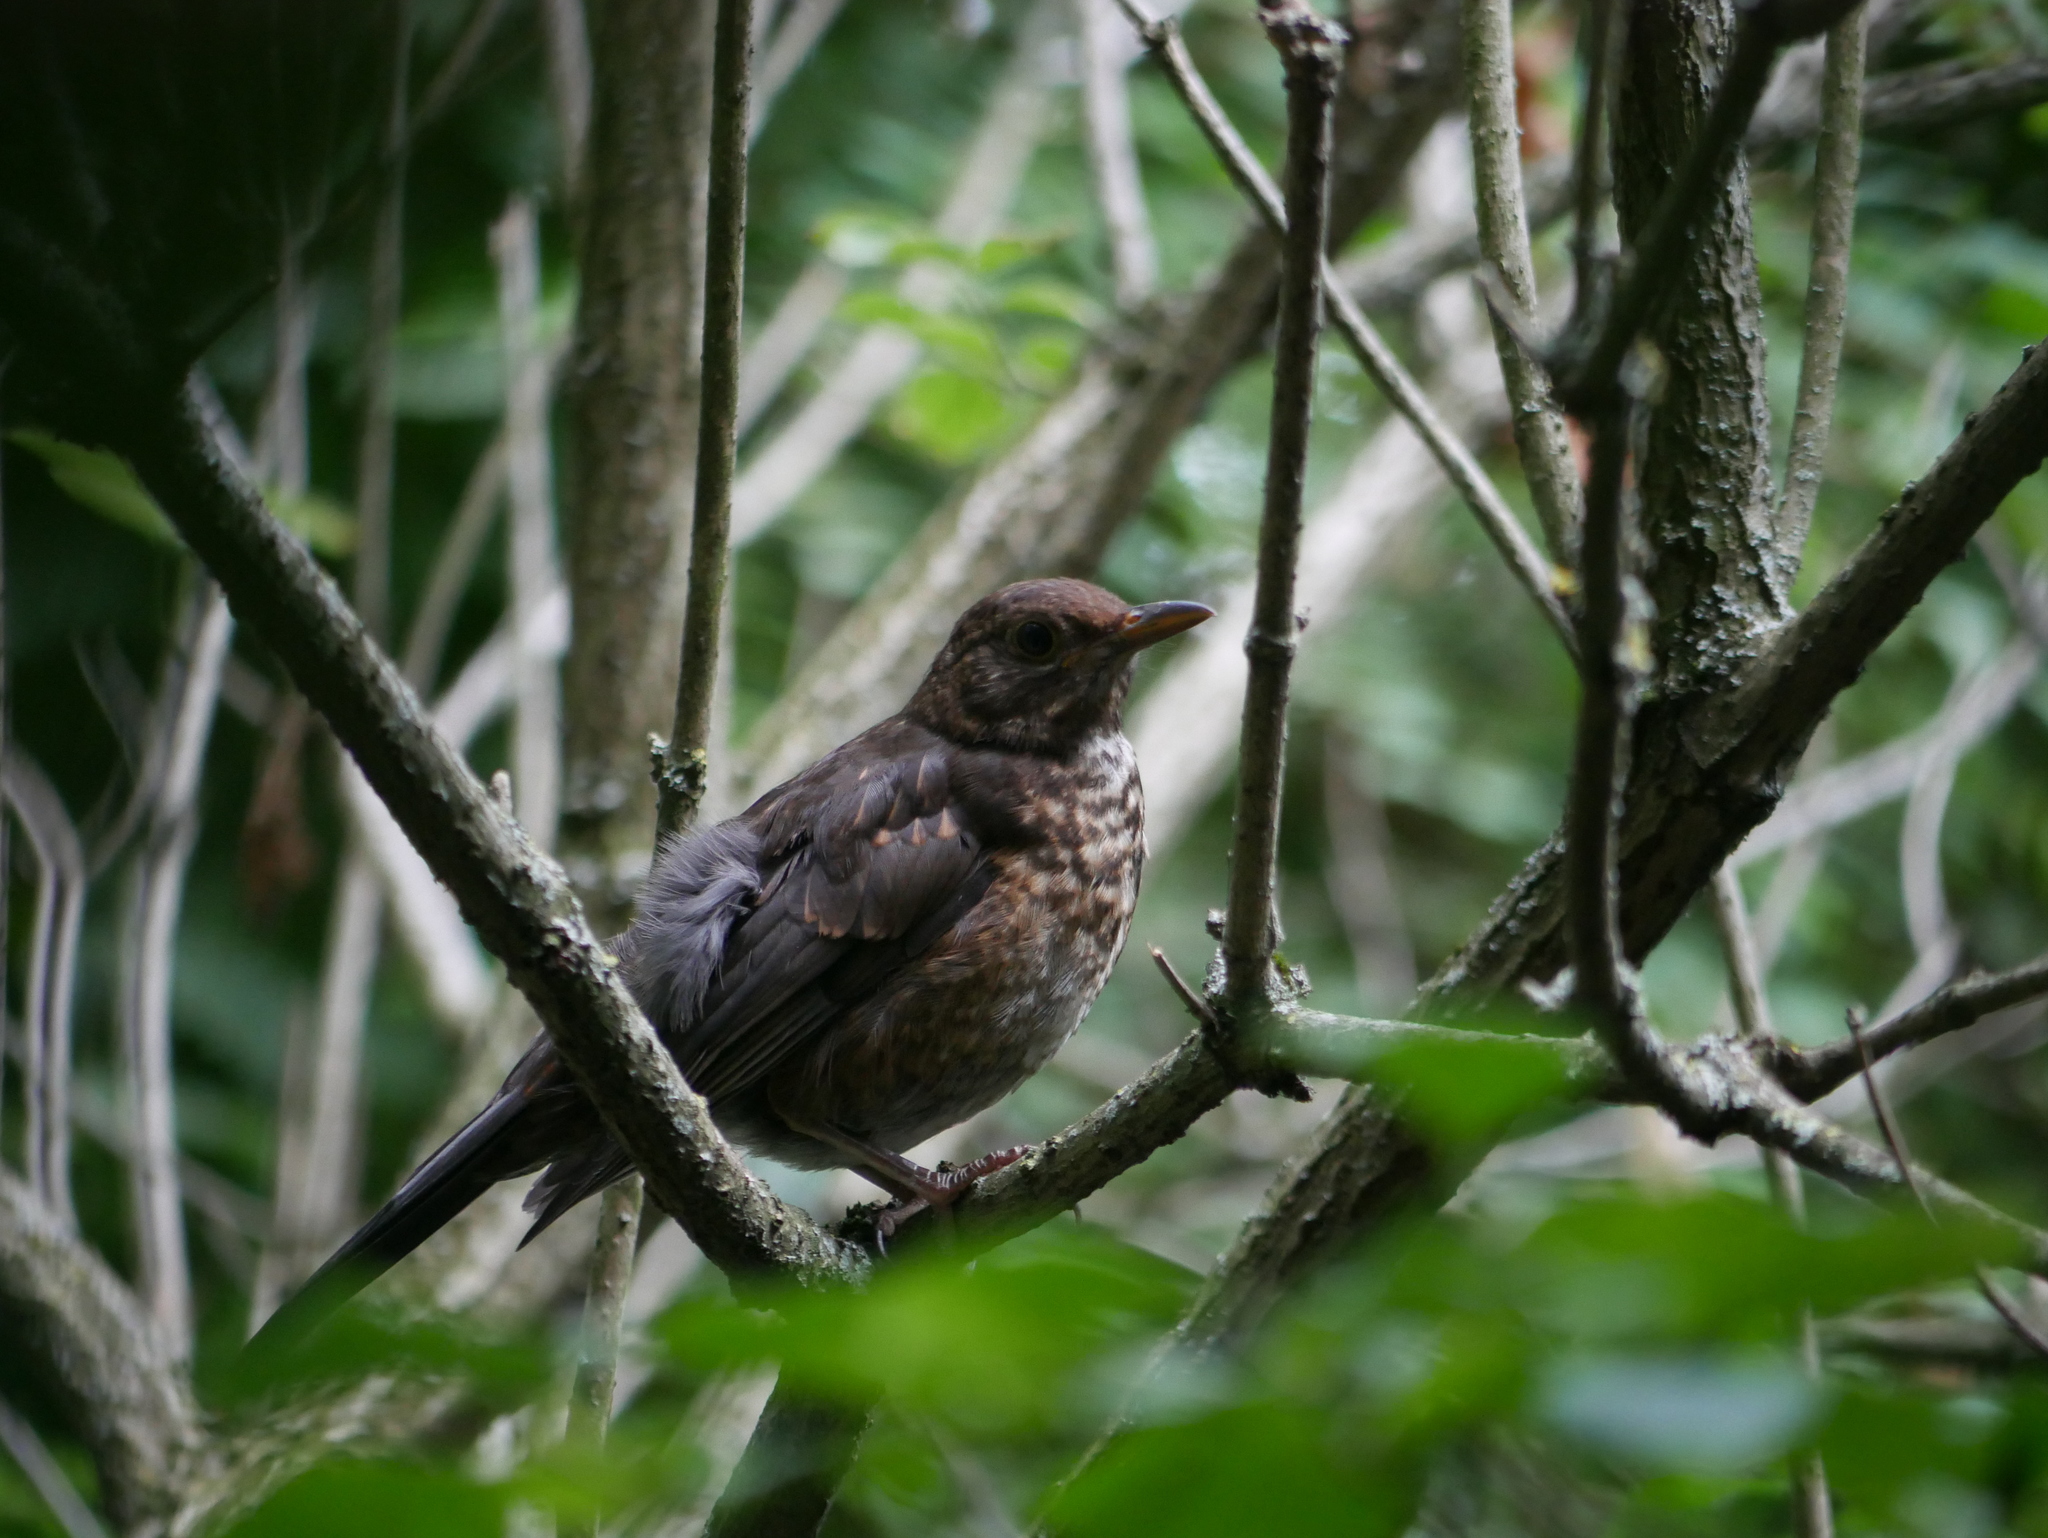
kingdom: Animalia
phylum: Chordata
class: Aves
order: Passeriformes
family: Turdidae
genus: Turdus
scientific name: Turdus merula
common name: Common blackbird
